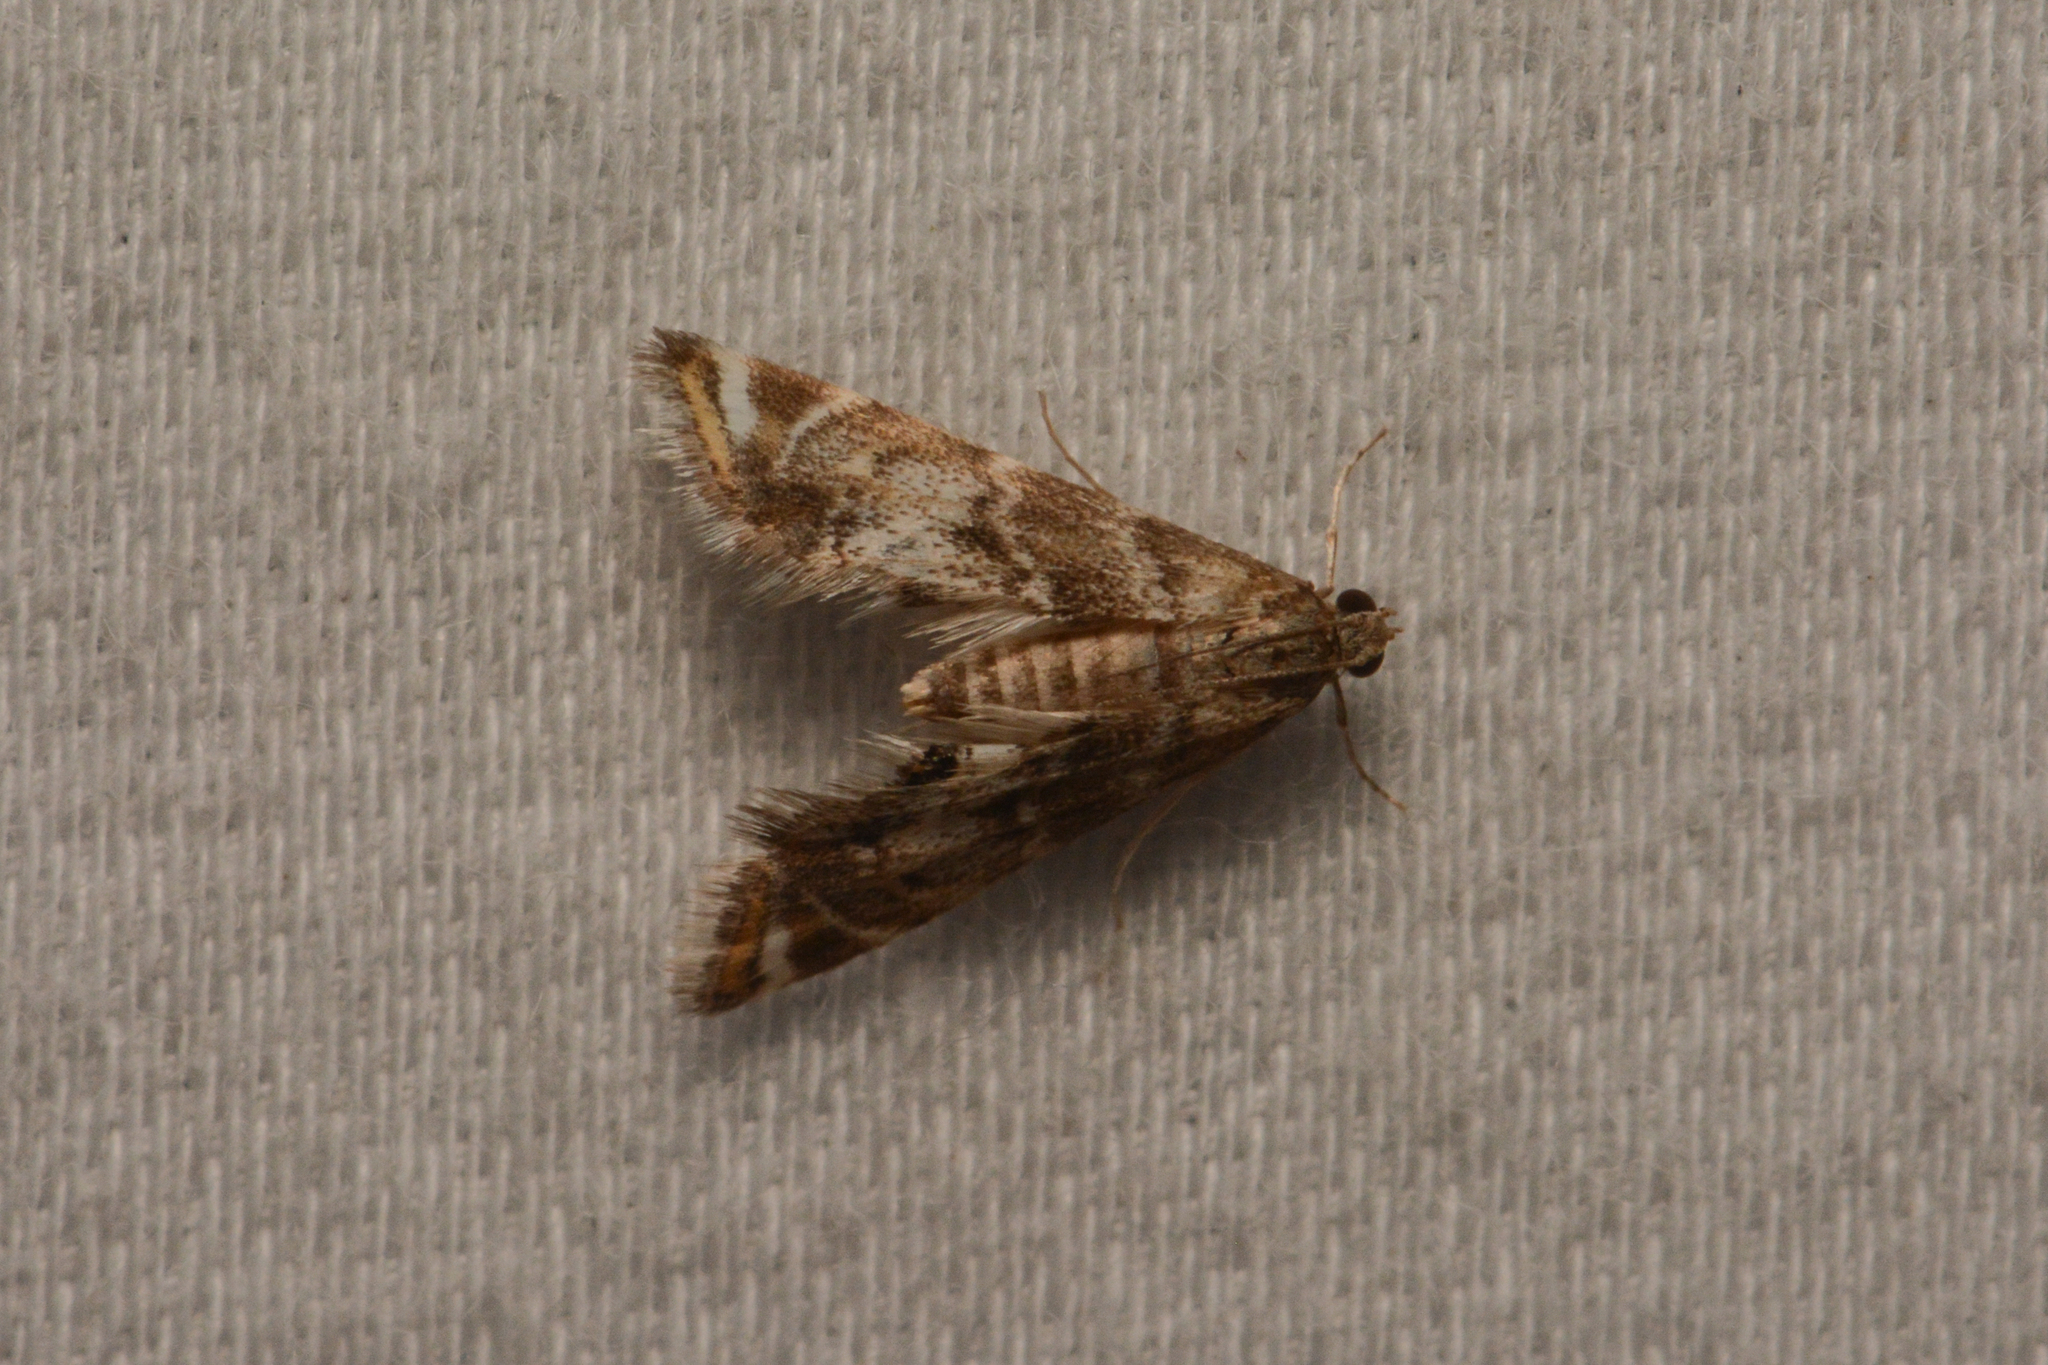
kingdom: Animalia
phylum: Arthropoda
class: Insecta
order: Lepidoptera
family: Crambidae
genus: Petrophila
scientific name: Petrophila confusalis
